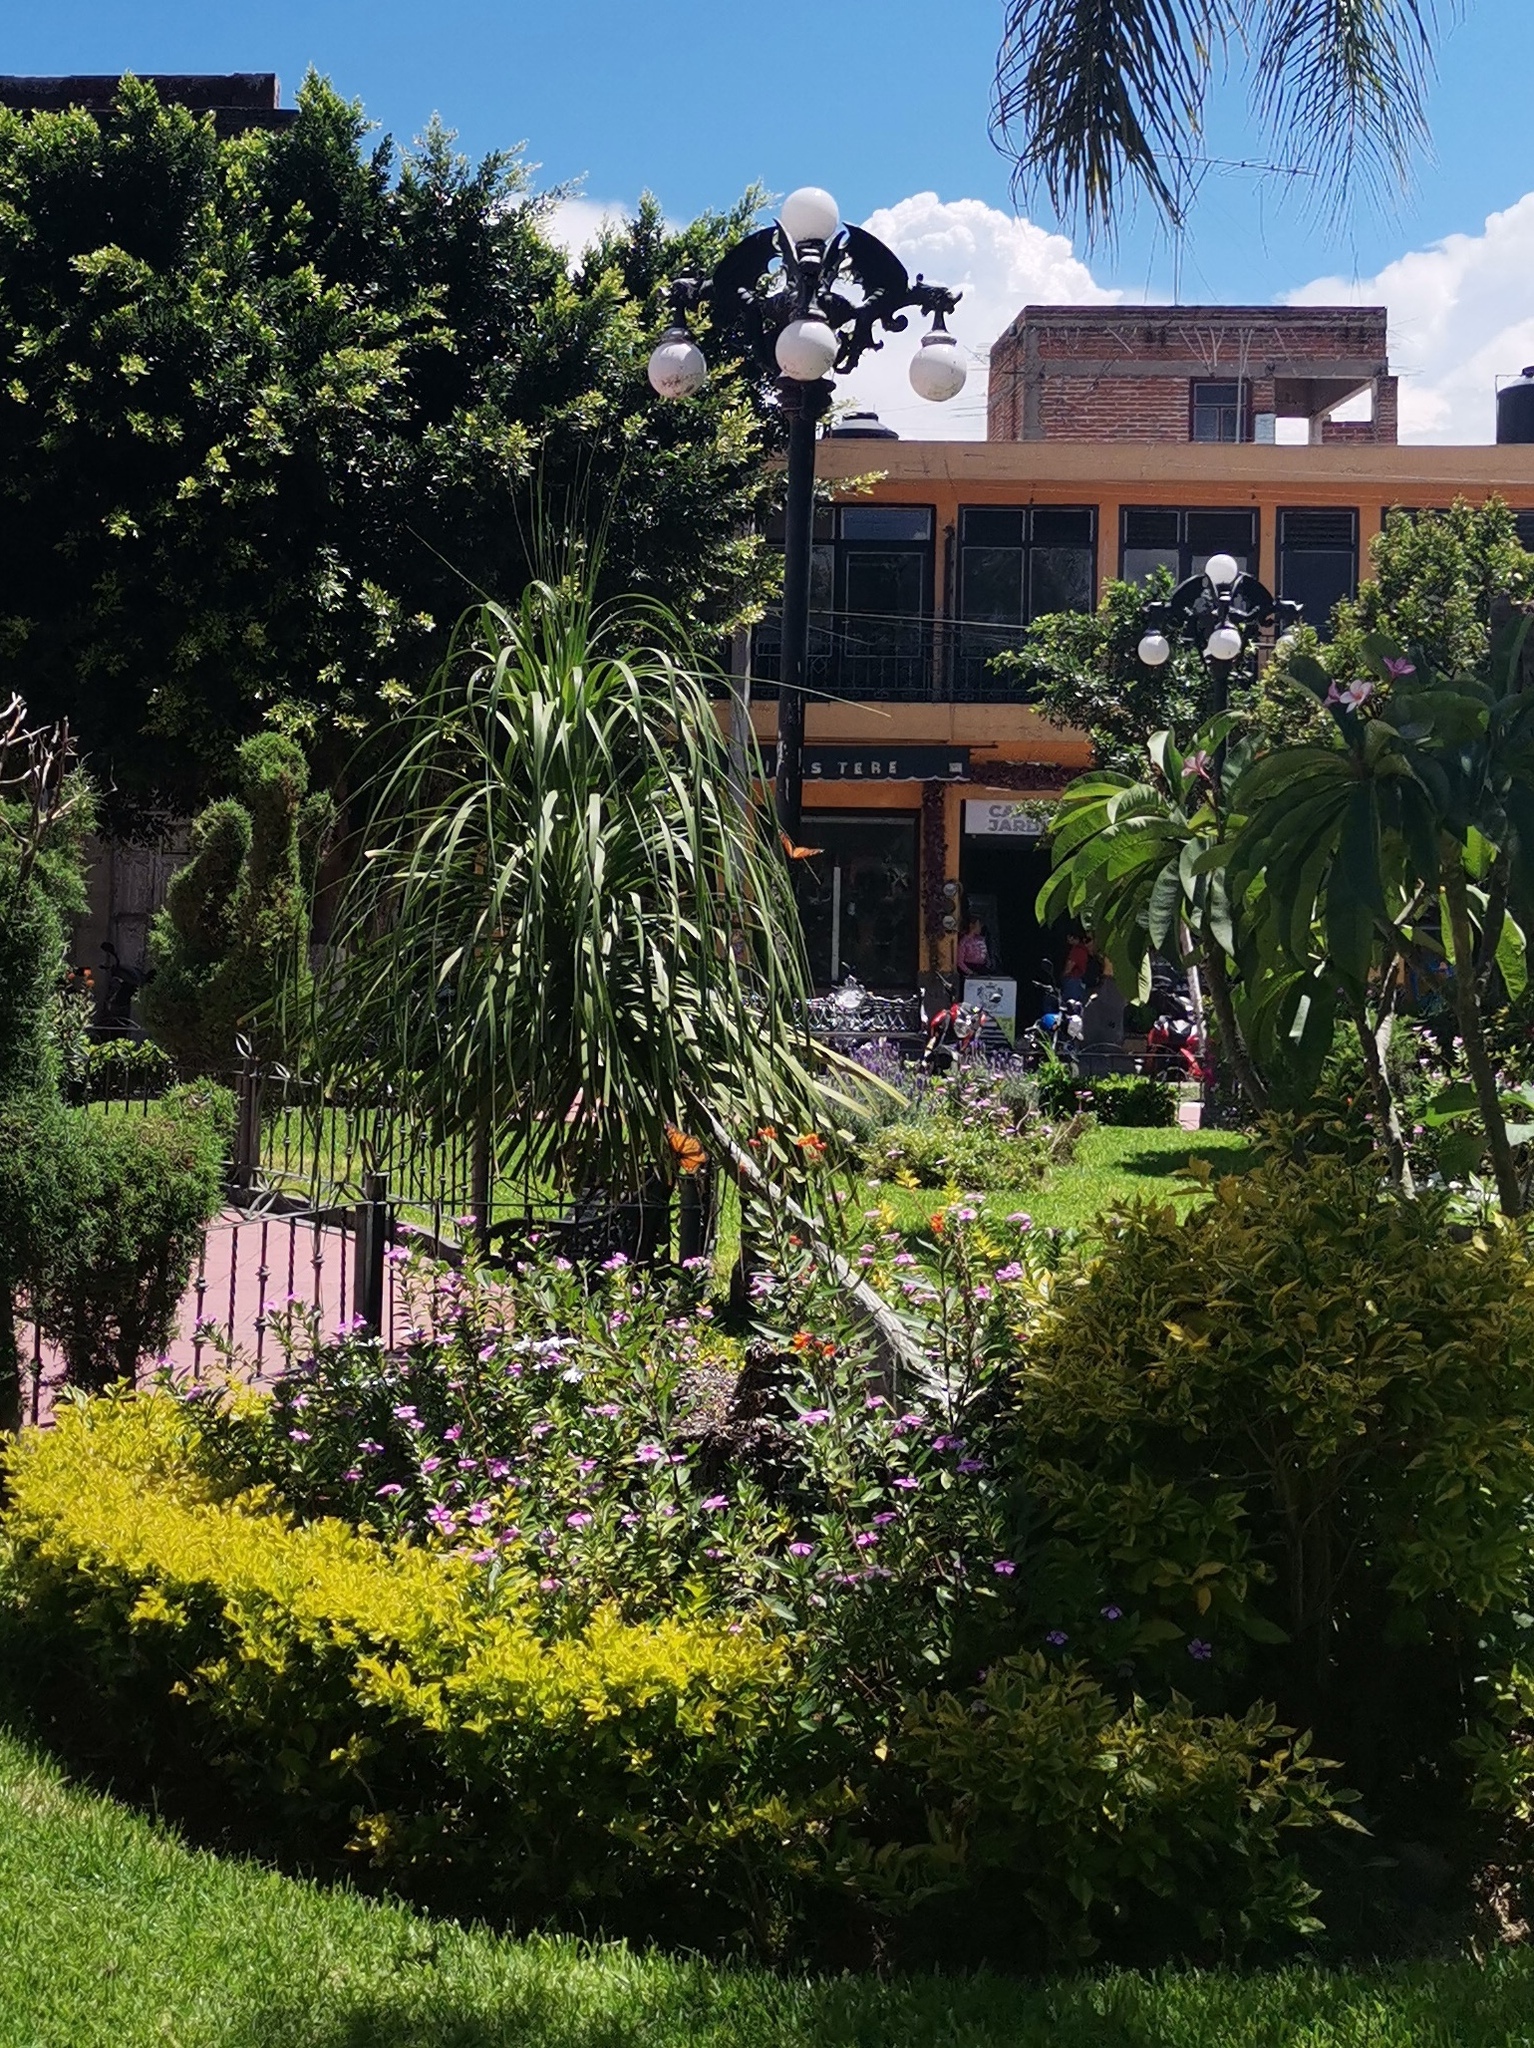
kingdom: Animalia
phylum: Arthropoda
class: Insecta
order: Lepidoptera
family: Nymphalidae
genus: Danaus
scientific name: Danaus plexippus
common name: Monarch
